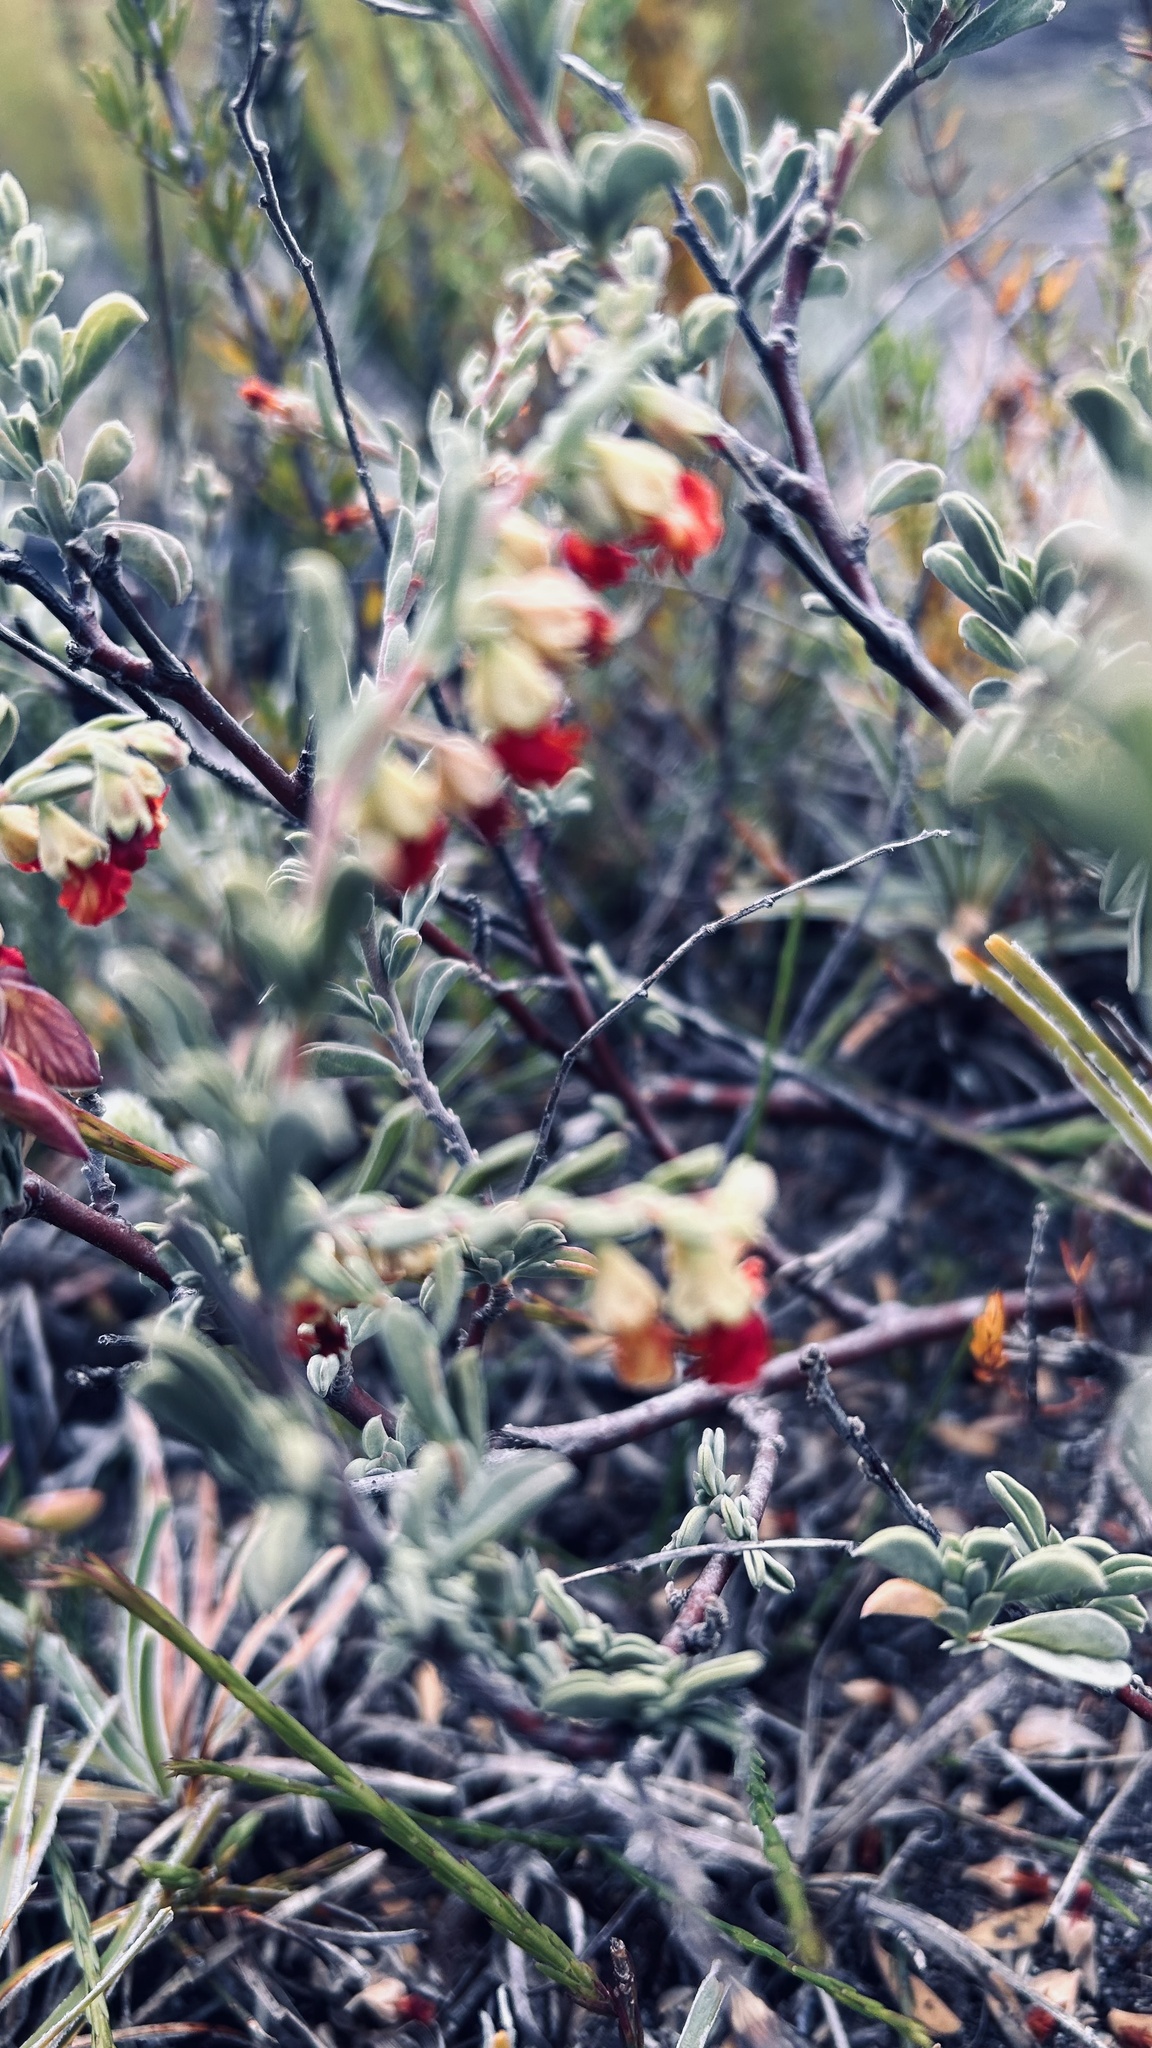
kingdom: Plantae
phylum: Tracheophyta
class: Magnoliopsida
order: Malvales
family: Malvaceae
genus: Hermannia
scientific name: Hermannia diversistipula
